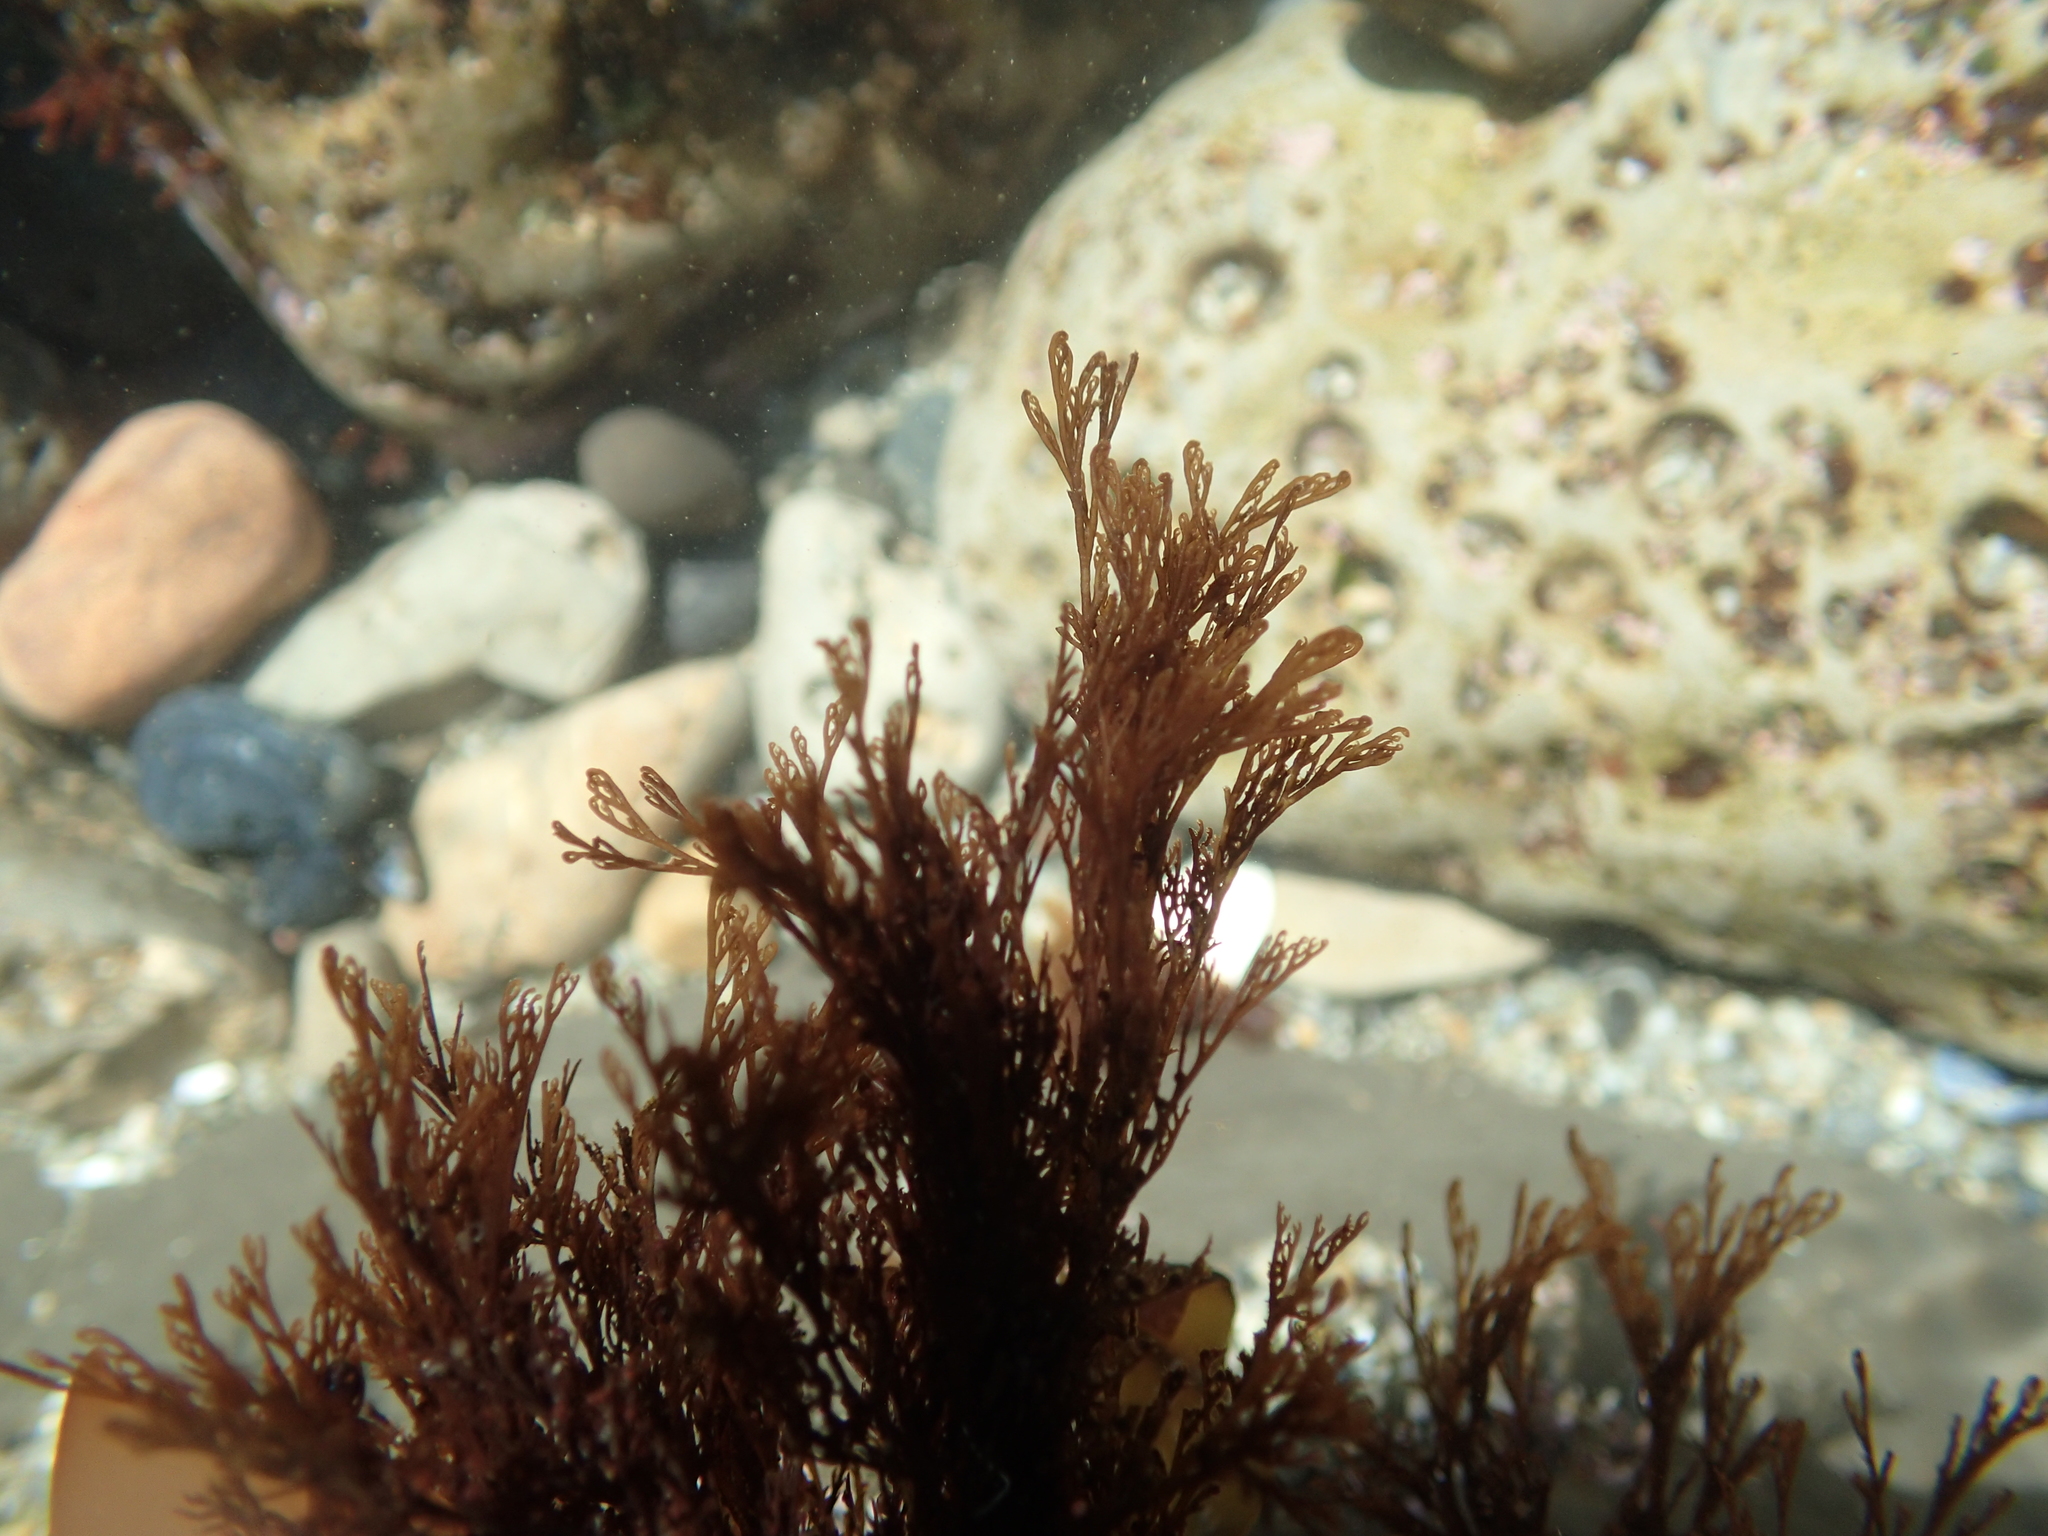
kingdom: Plantae
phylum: Rhodophyta
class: Florideophyceae
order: Ceramiales
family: Ceramiaceae
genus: Microcladia
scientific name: Microcladia borealis
